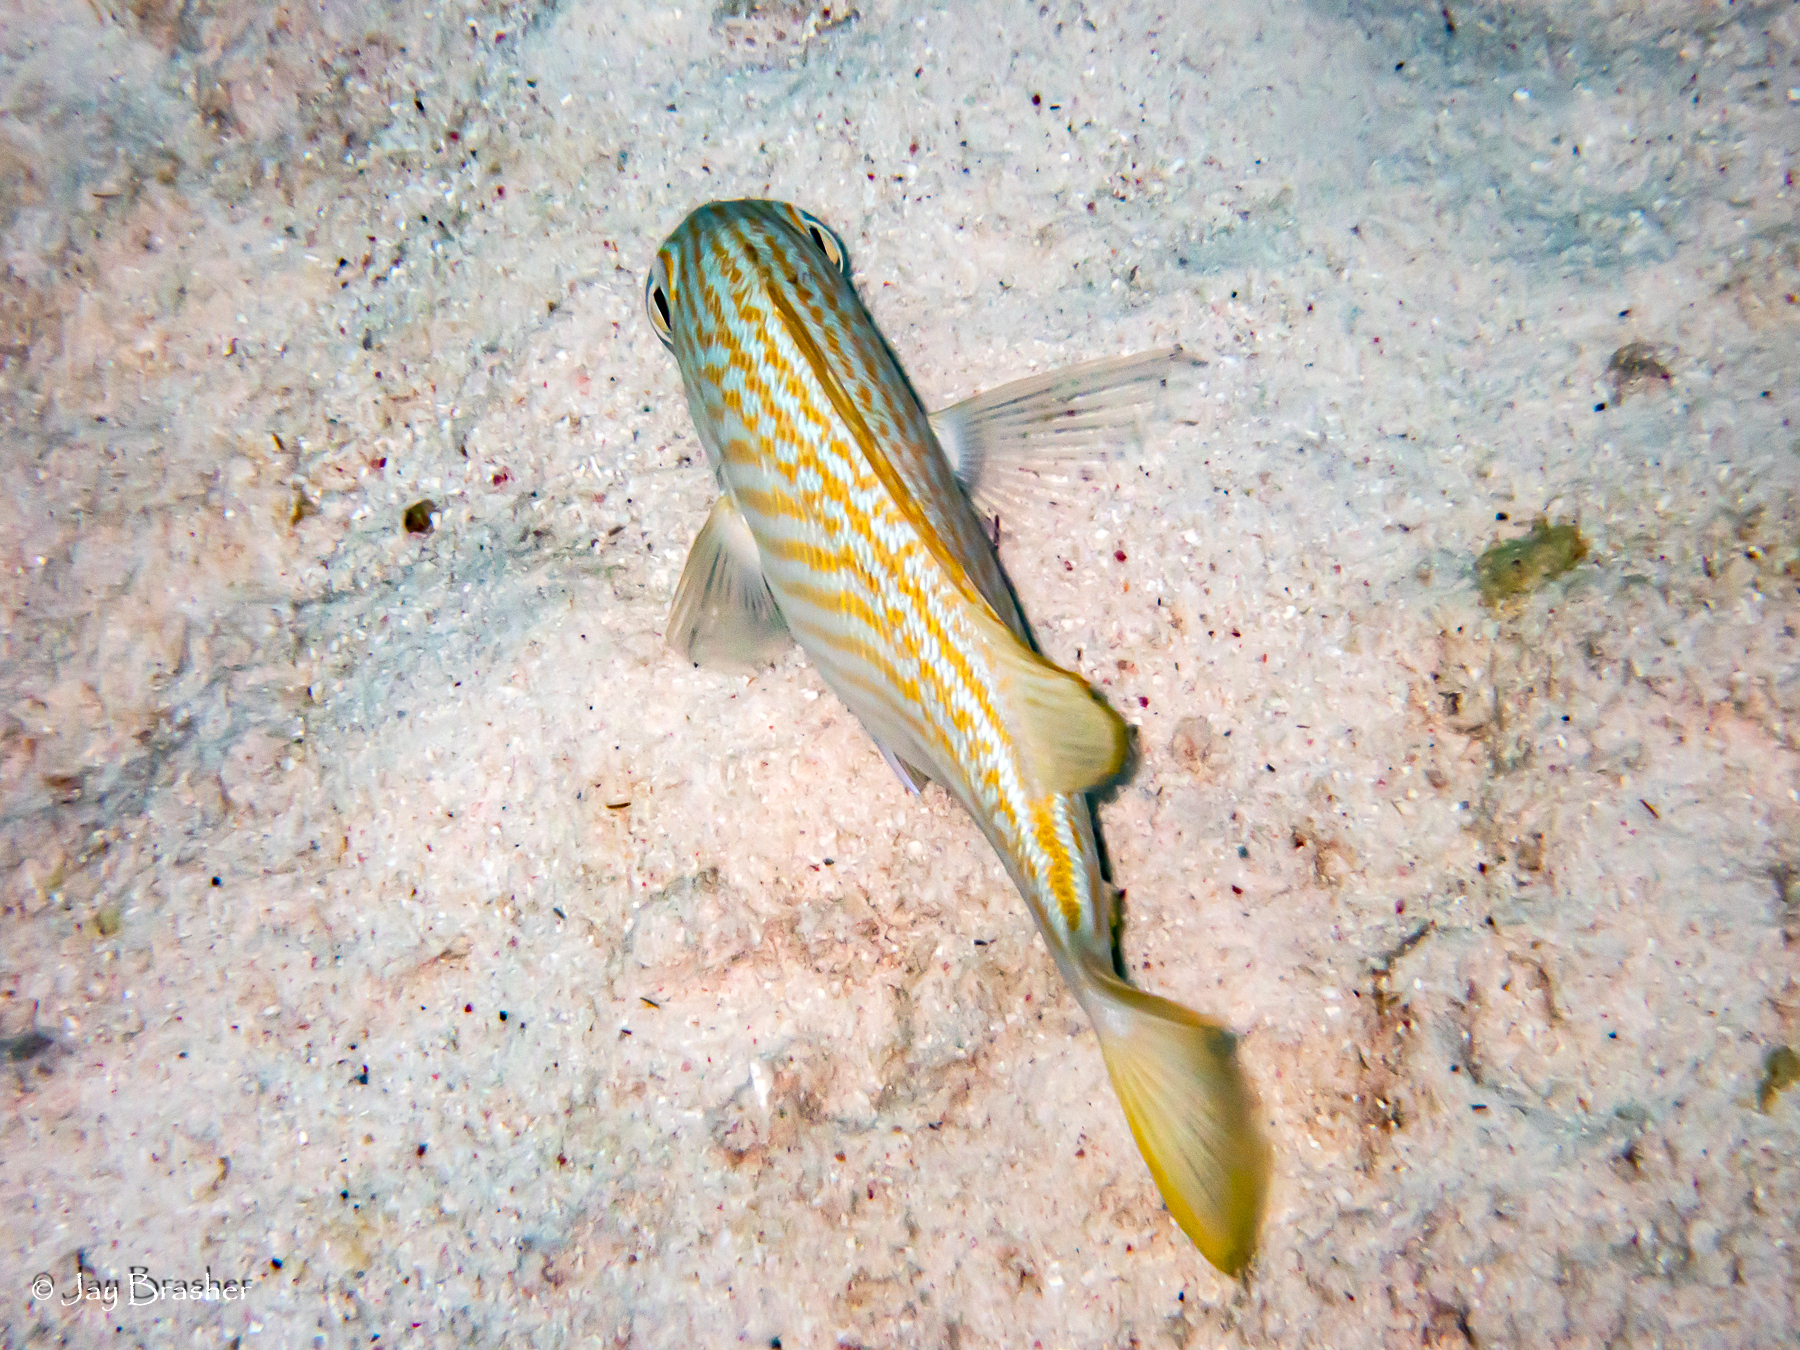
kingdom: Animalia
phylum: Chordata
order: Perciformes
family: Haemulidae
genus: Haemulon
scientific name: Haemulon flavolineatum
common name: French grunt
